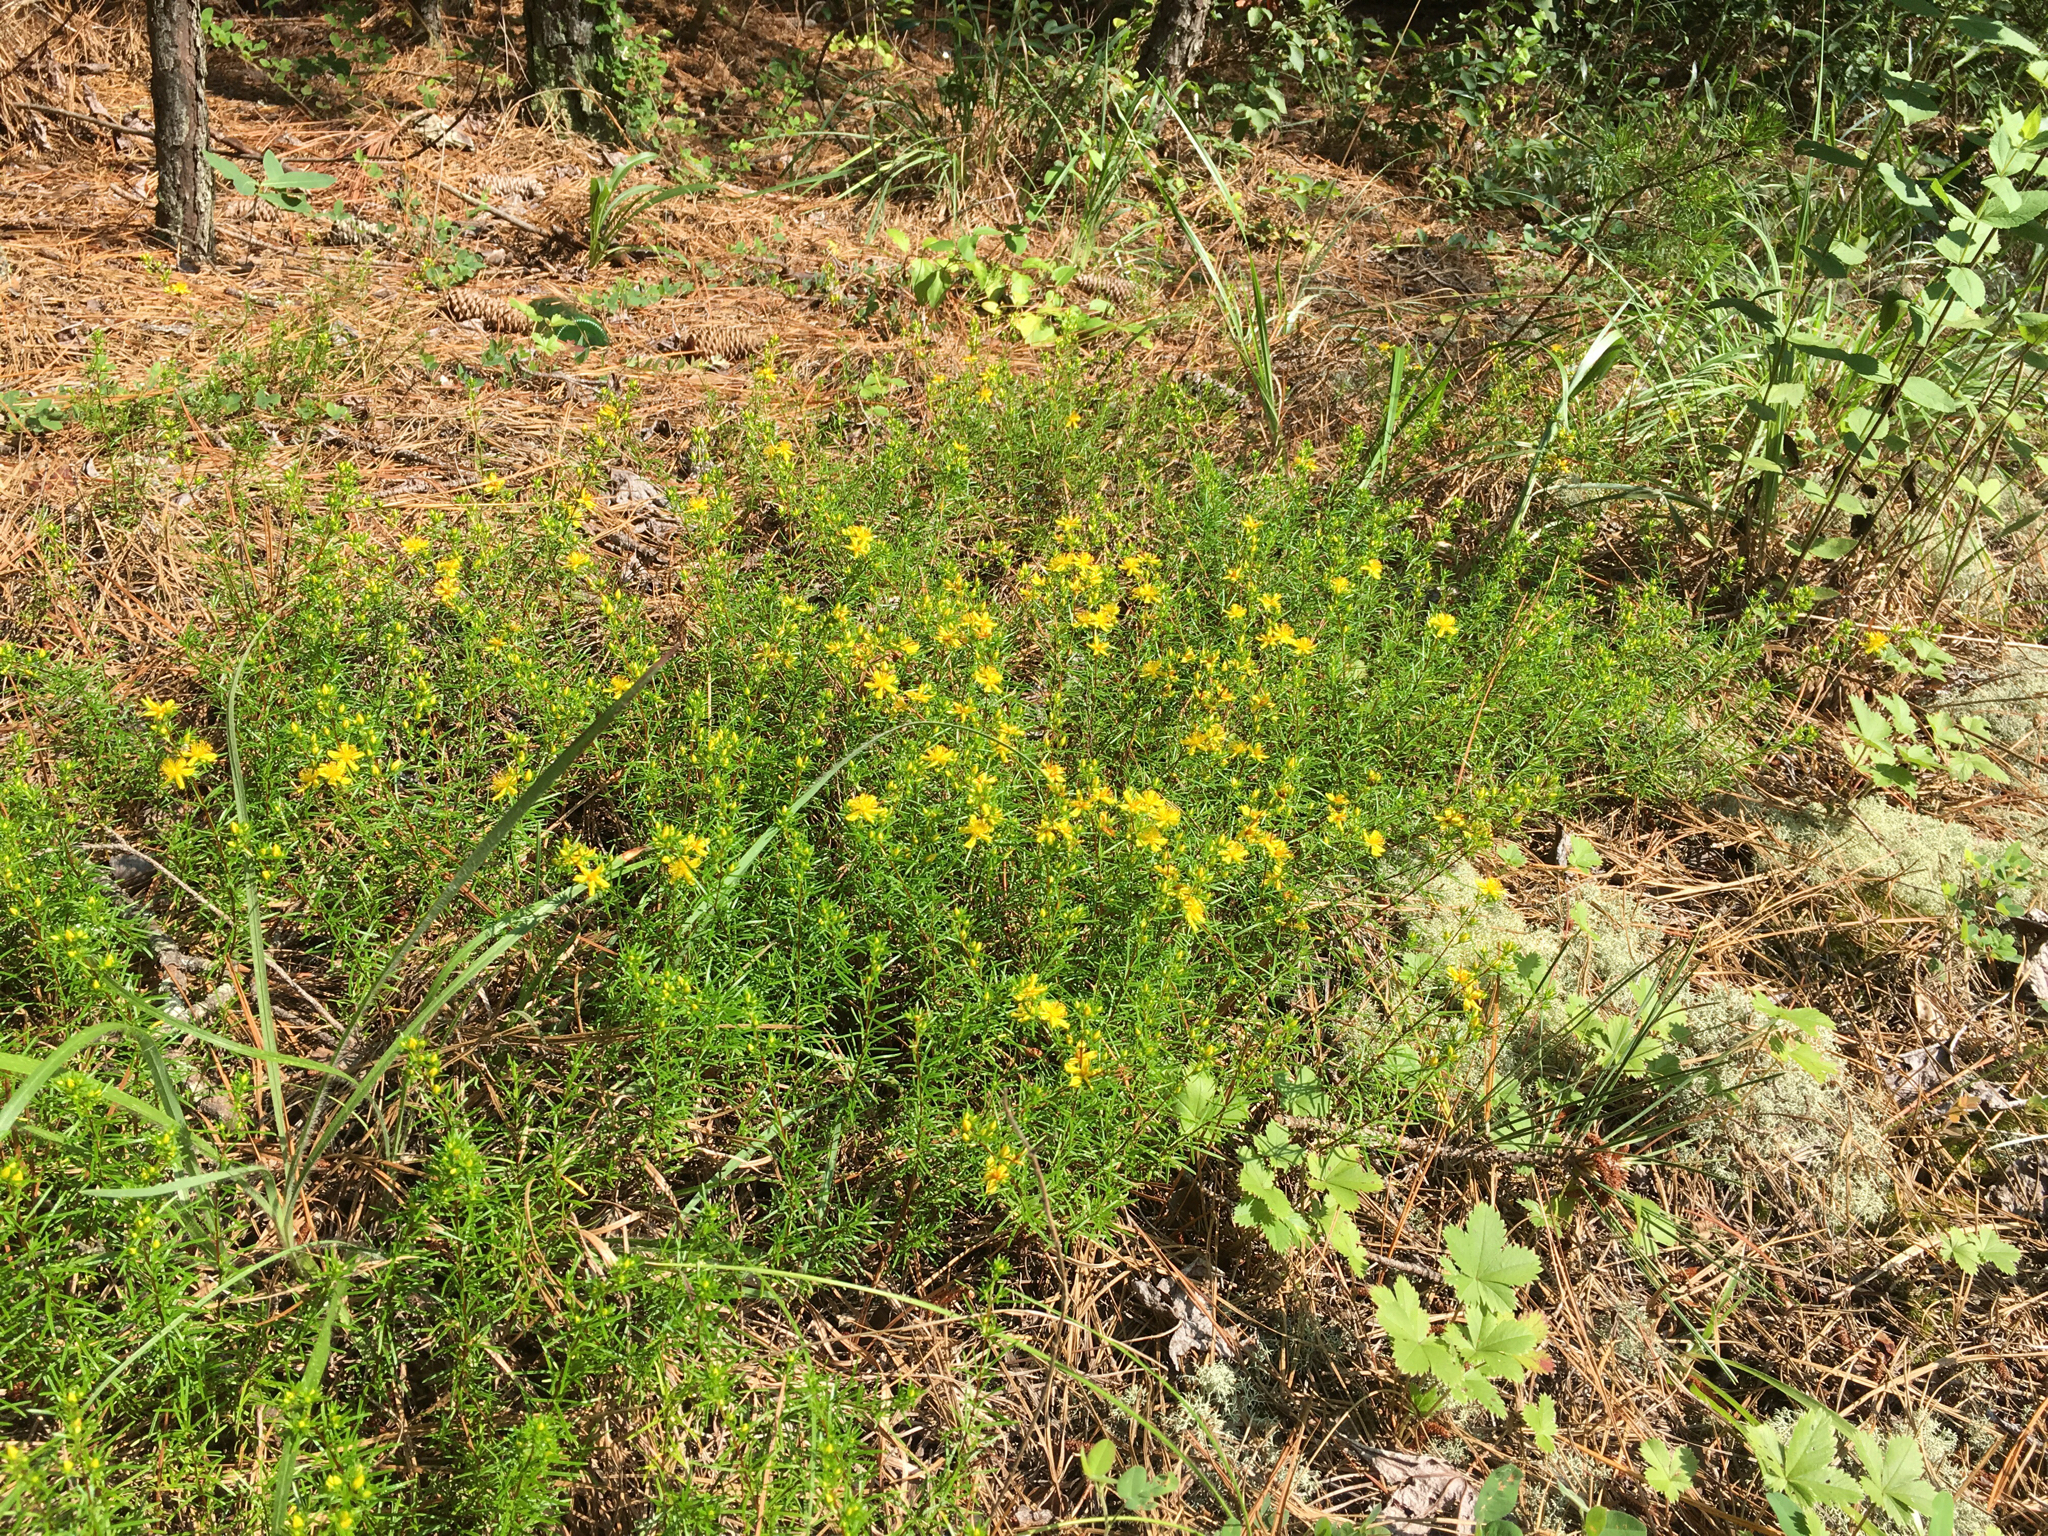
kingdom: Plantae
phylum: Tracheophyta
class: Magnoliopsida
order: Malpighiales
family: Hypericaceae
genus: Hypericum
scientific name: Hypericum lloydii
